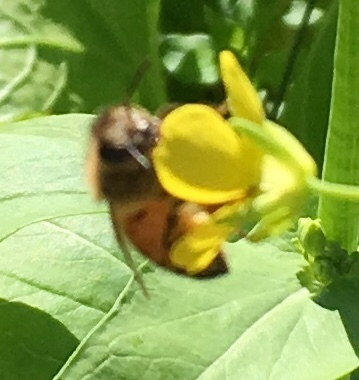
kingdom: Animalia
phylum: Arthropoda
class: Insecta
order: Hymenoptera
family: Apidae
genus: Apis
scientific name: Apis mellifera
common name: Honey bee
